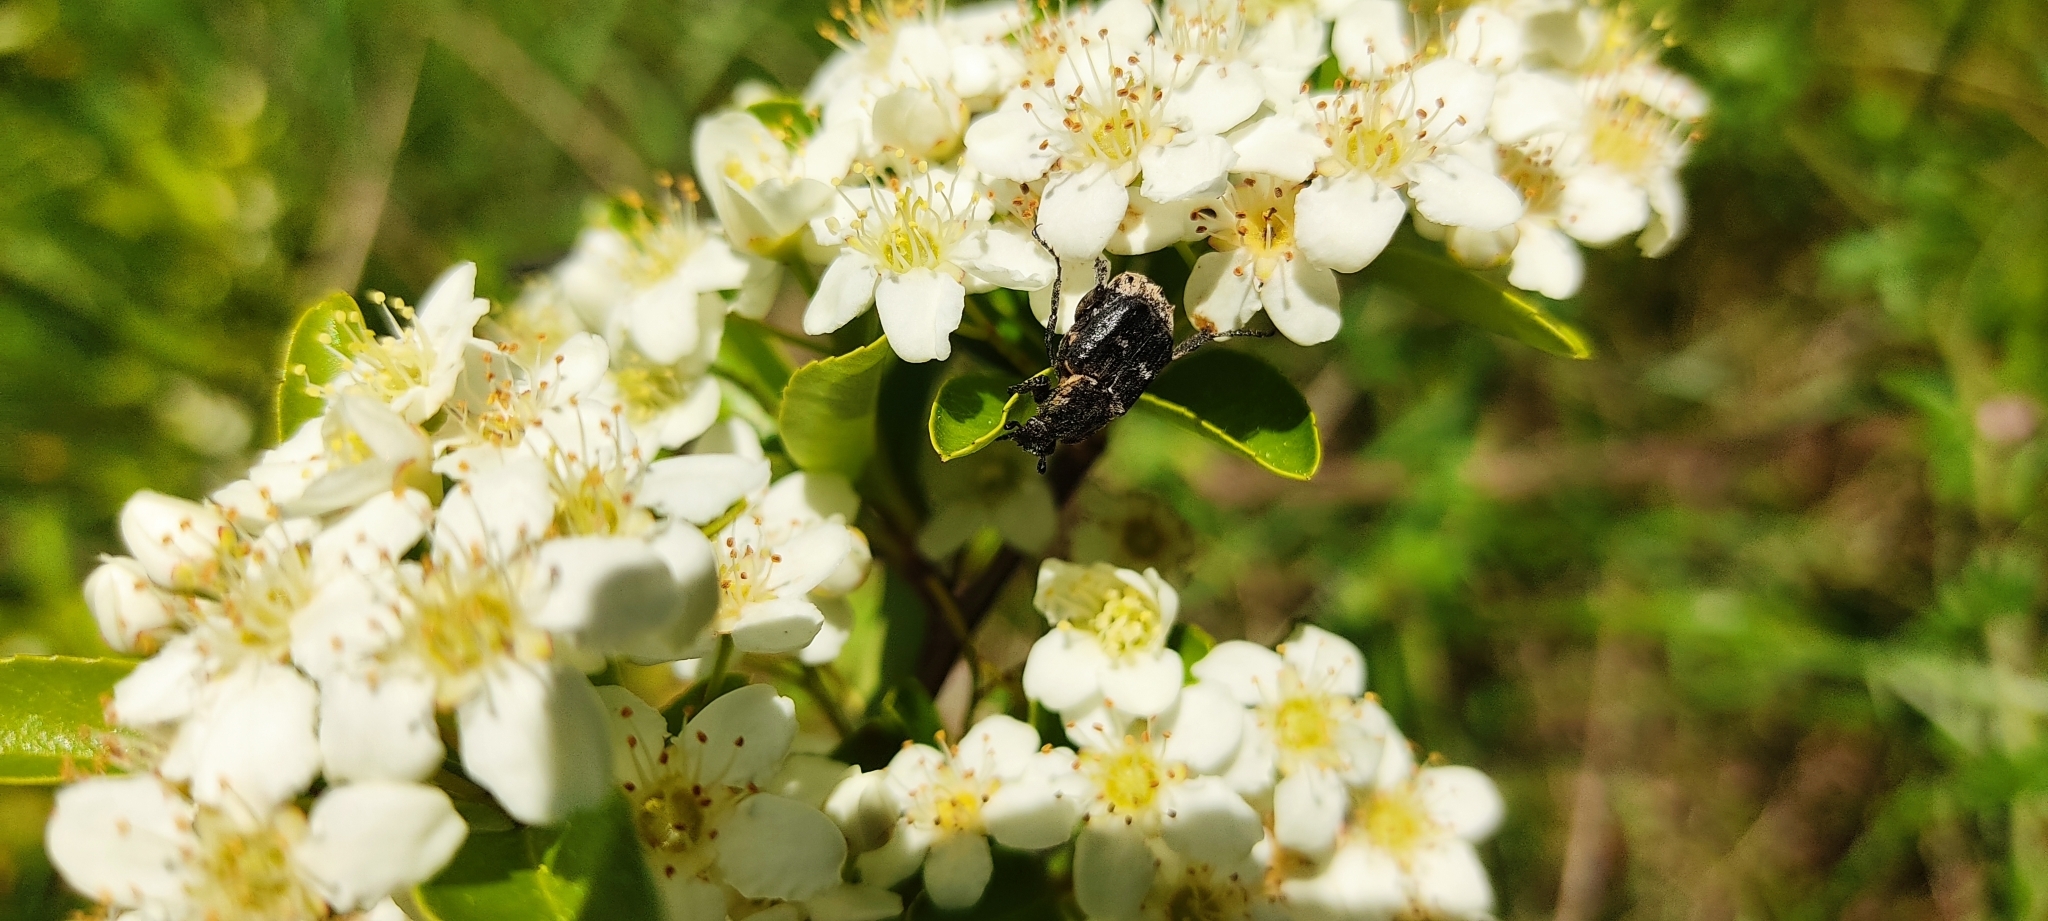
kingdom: Animalia
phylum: Arthropoda
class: Insecta
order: Coleoptera
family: Scarabaeidae
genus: Valgus
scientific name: Valgus hemipterus
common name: Bug flower chafer
